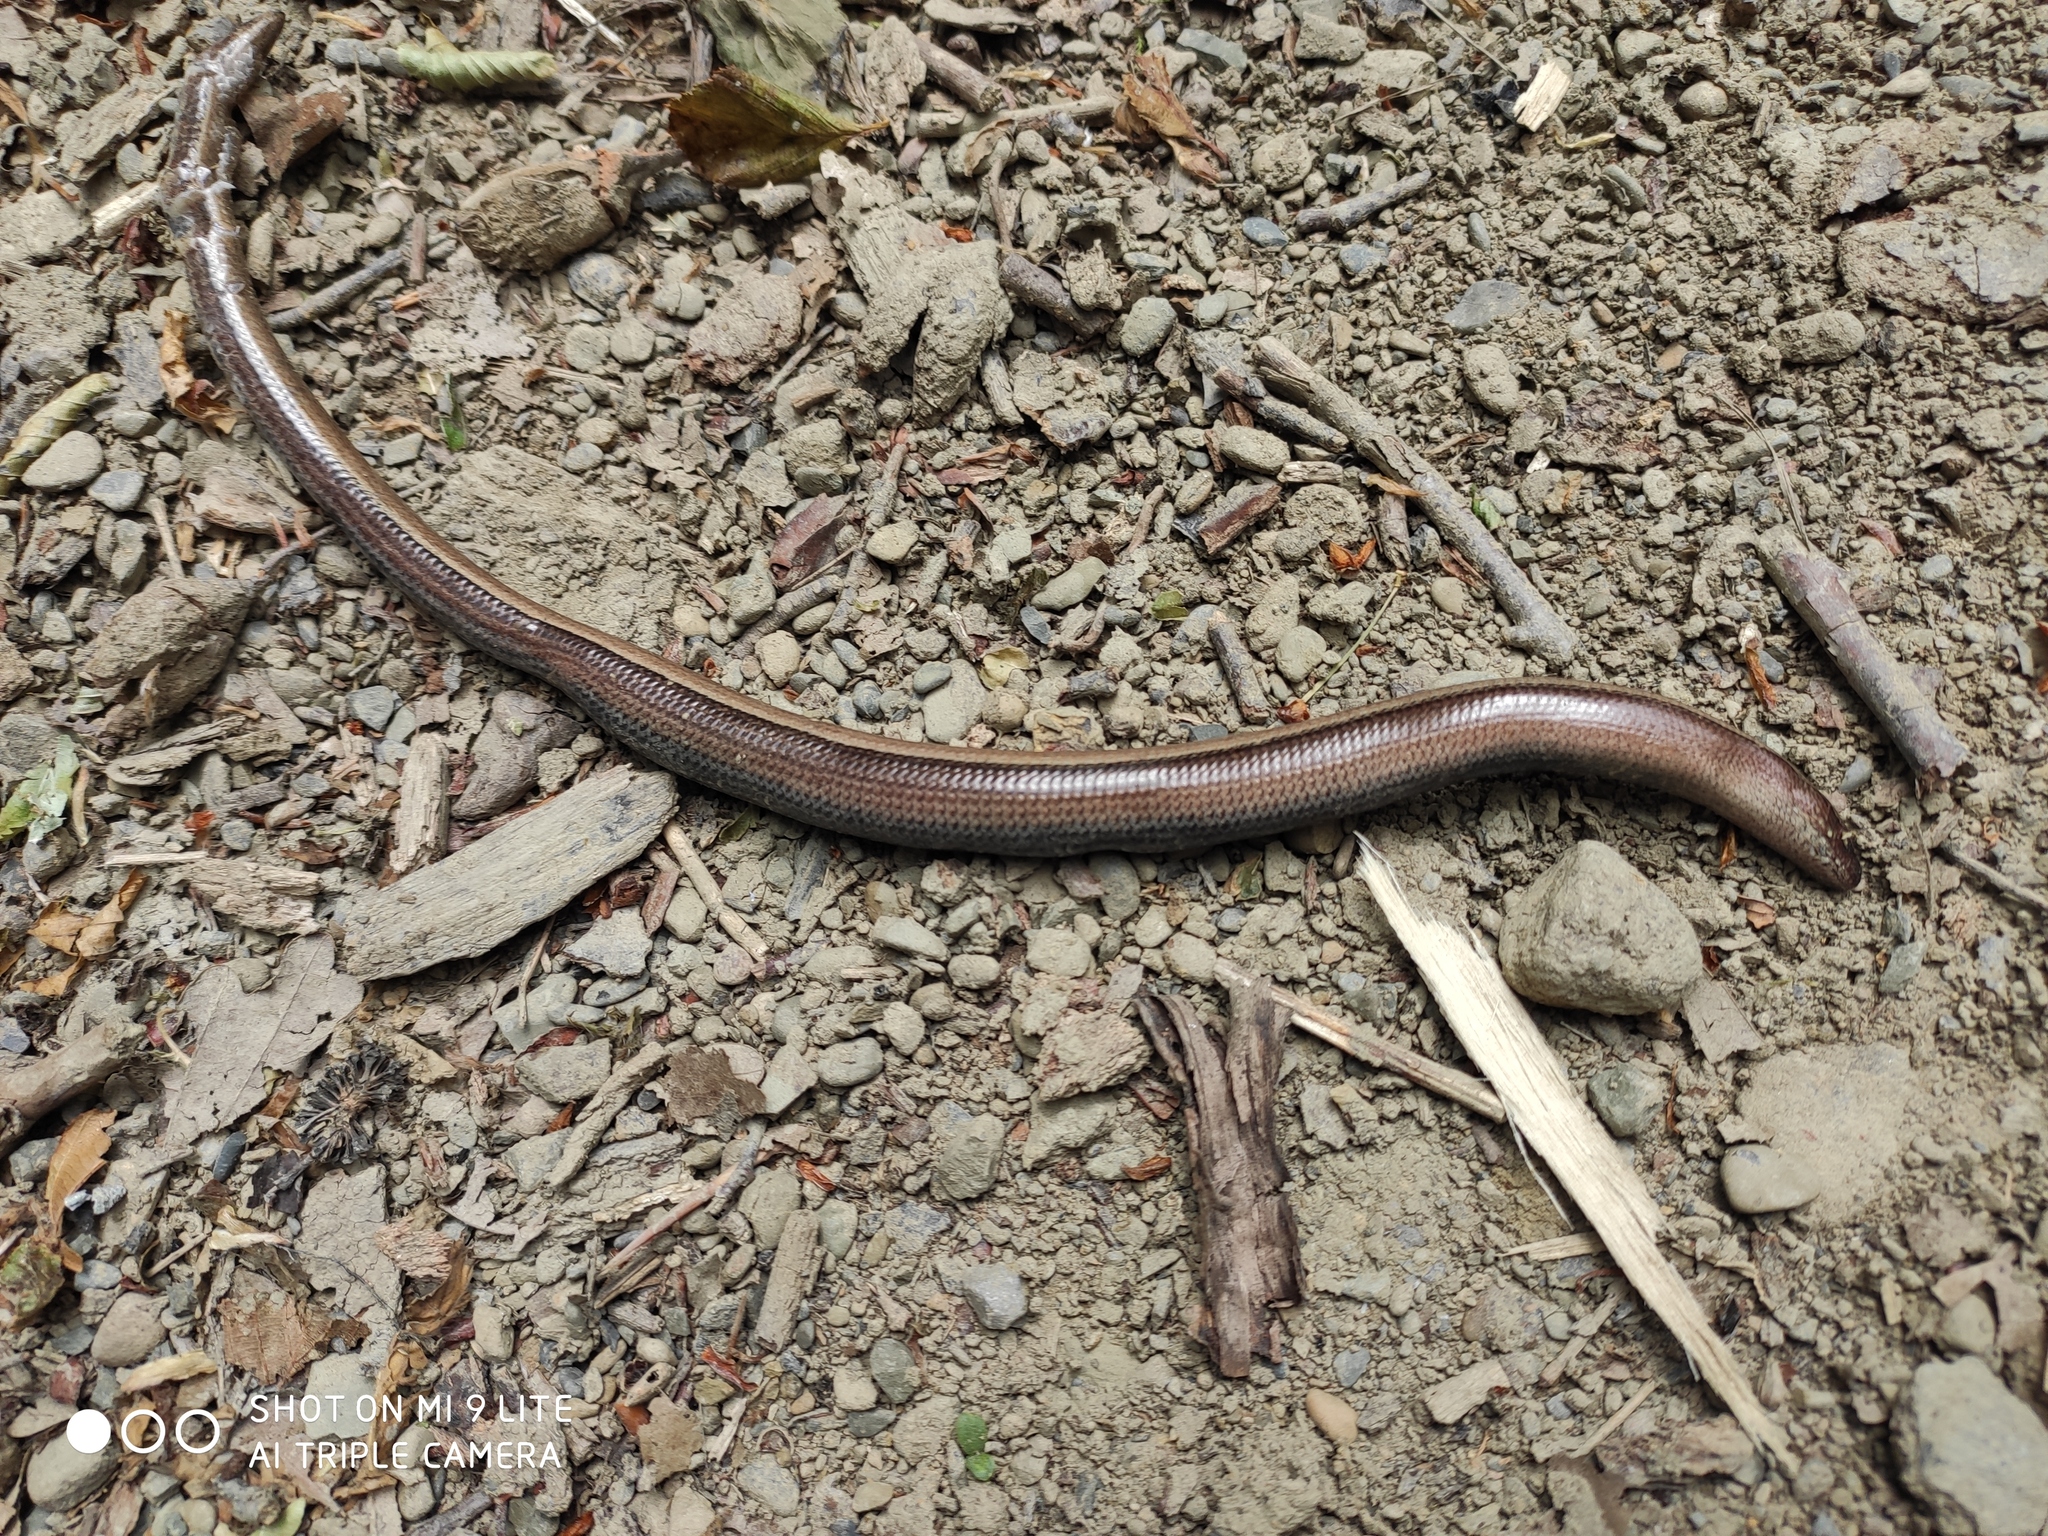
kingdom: Animalia
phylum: Chordata
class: Squamata
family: Anguidae
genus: Anguis
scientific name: Anguis colchica
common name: Slow worm
